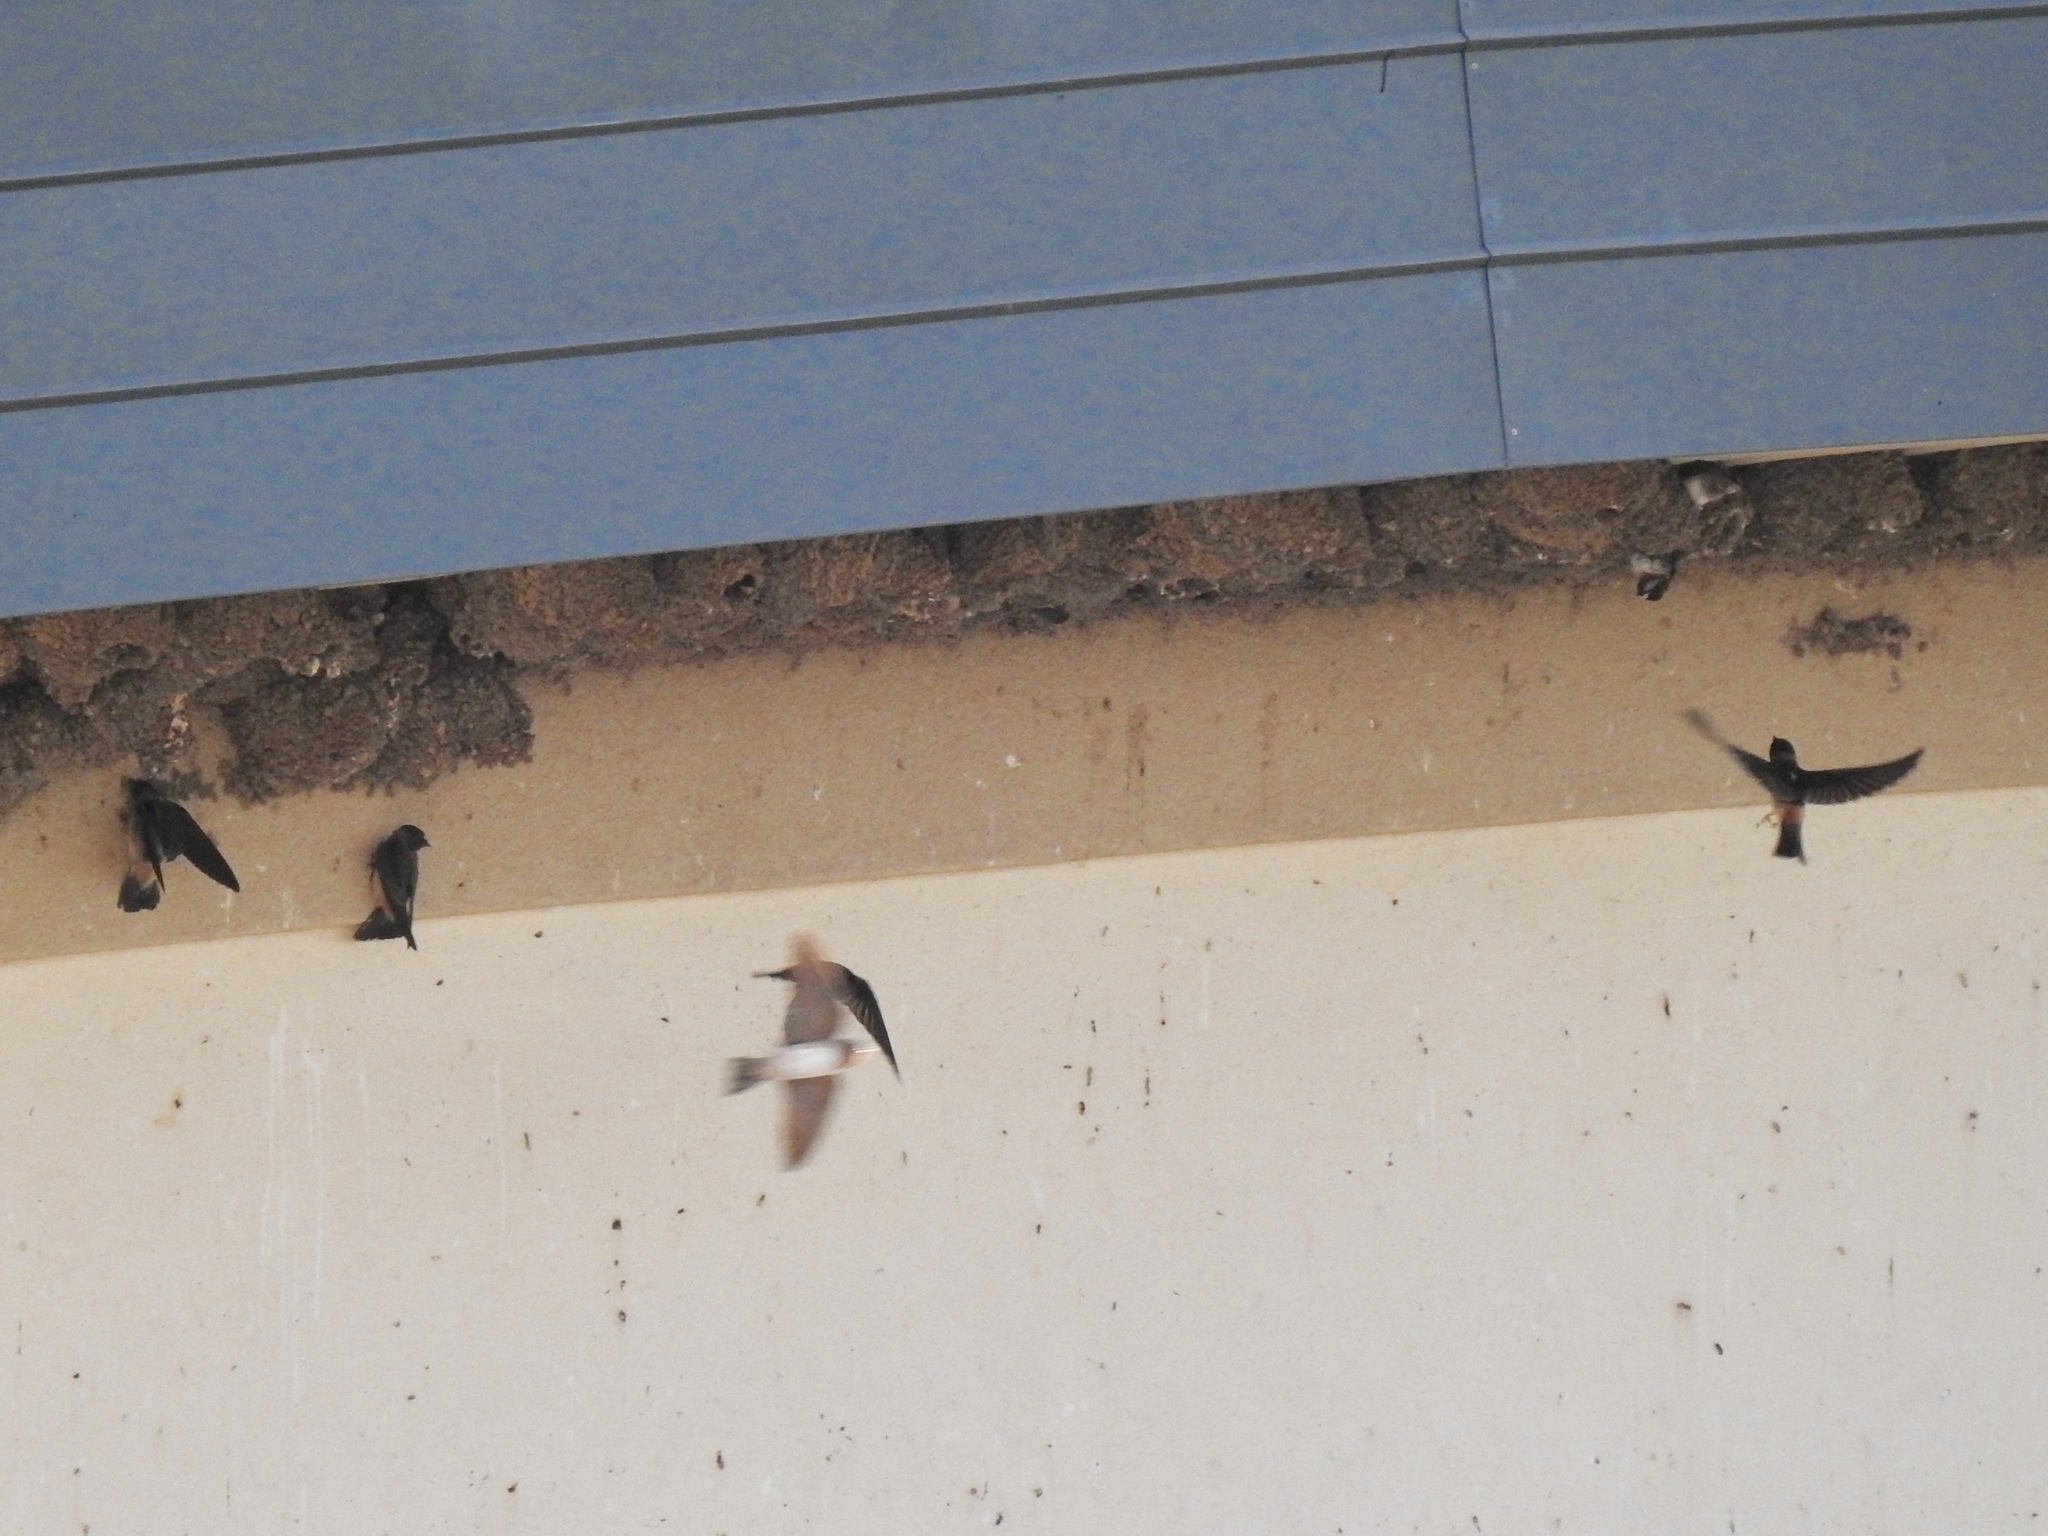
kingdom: Animalia
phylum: Chordata
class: Aves
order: Passeriformes
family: Hirundinidae
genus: Petrochelidon
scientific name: Petrochelidon pyrrhonota
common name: American cliff swallow
